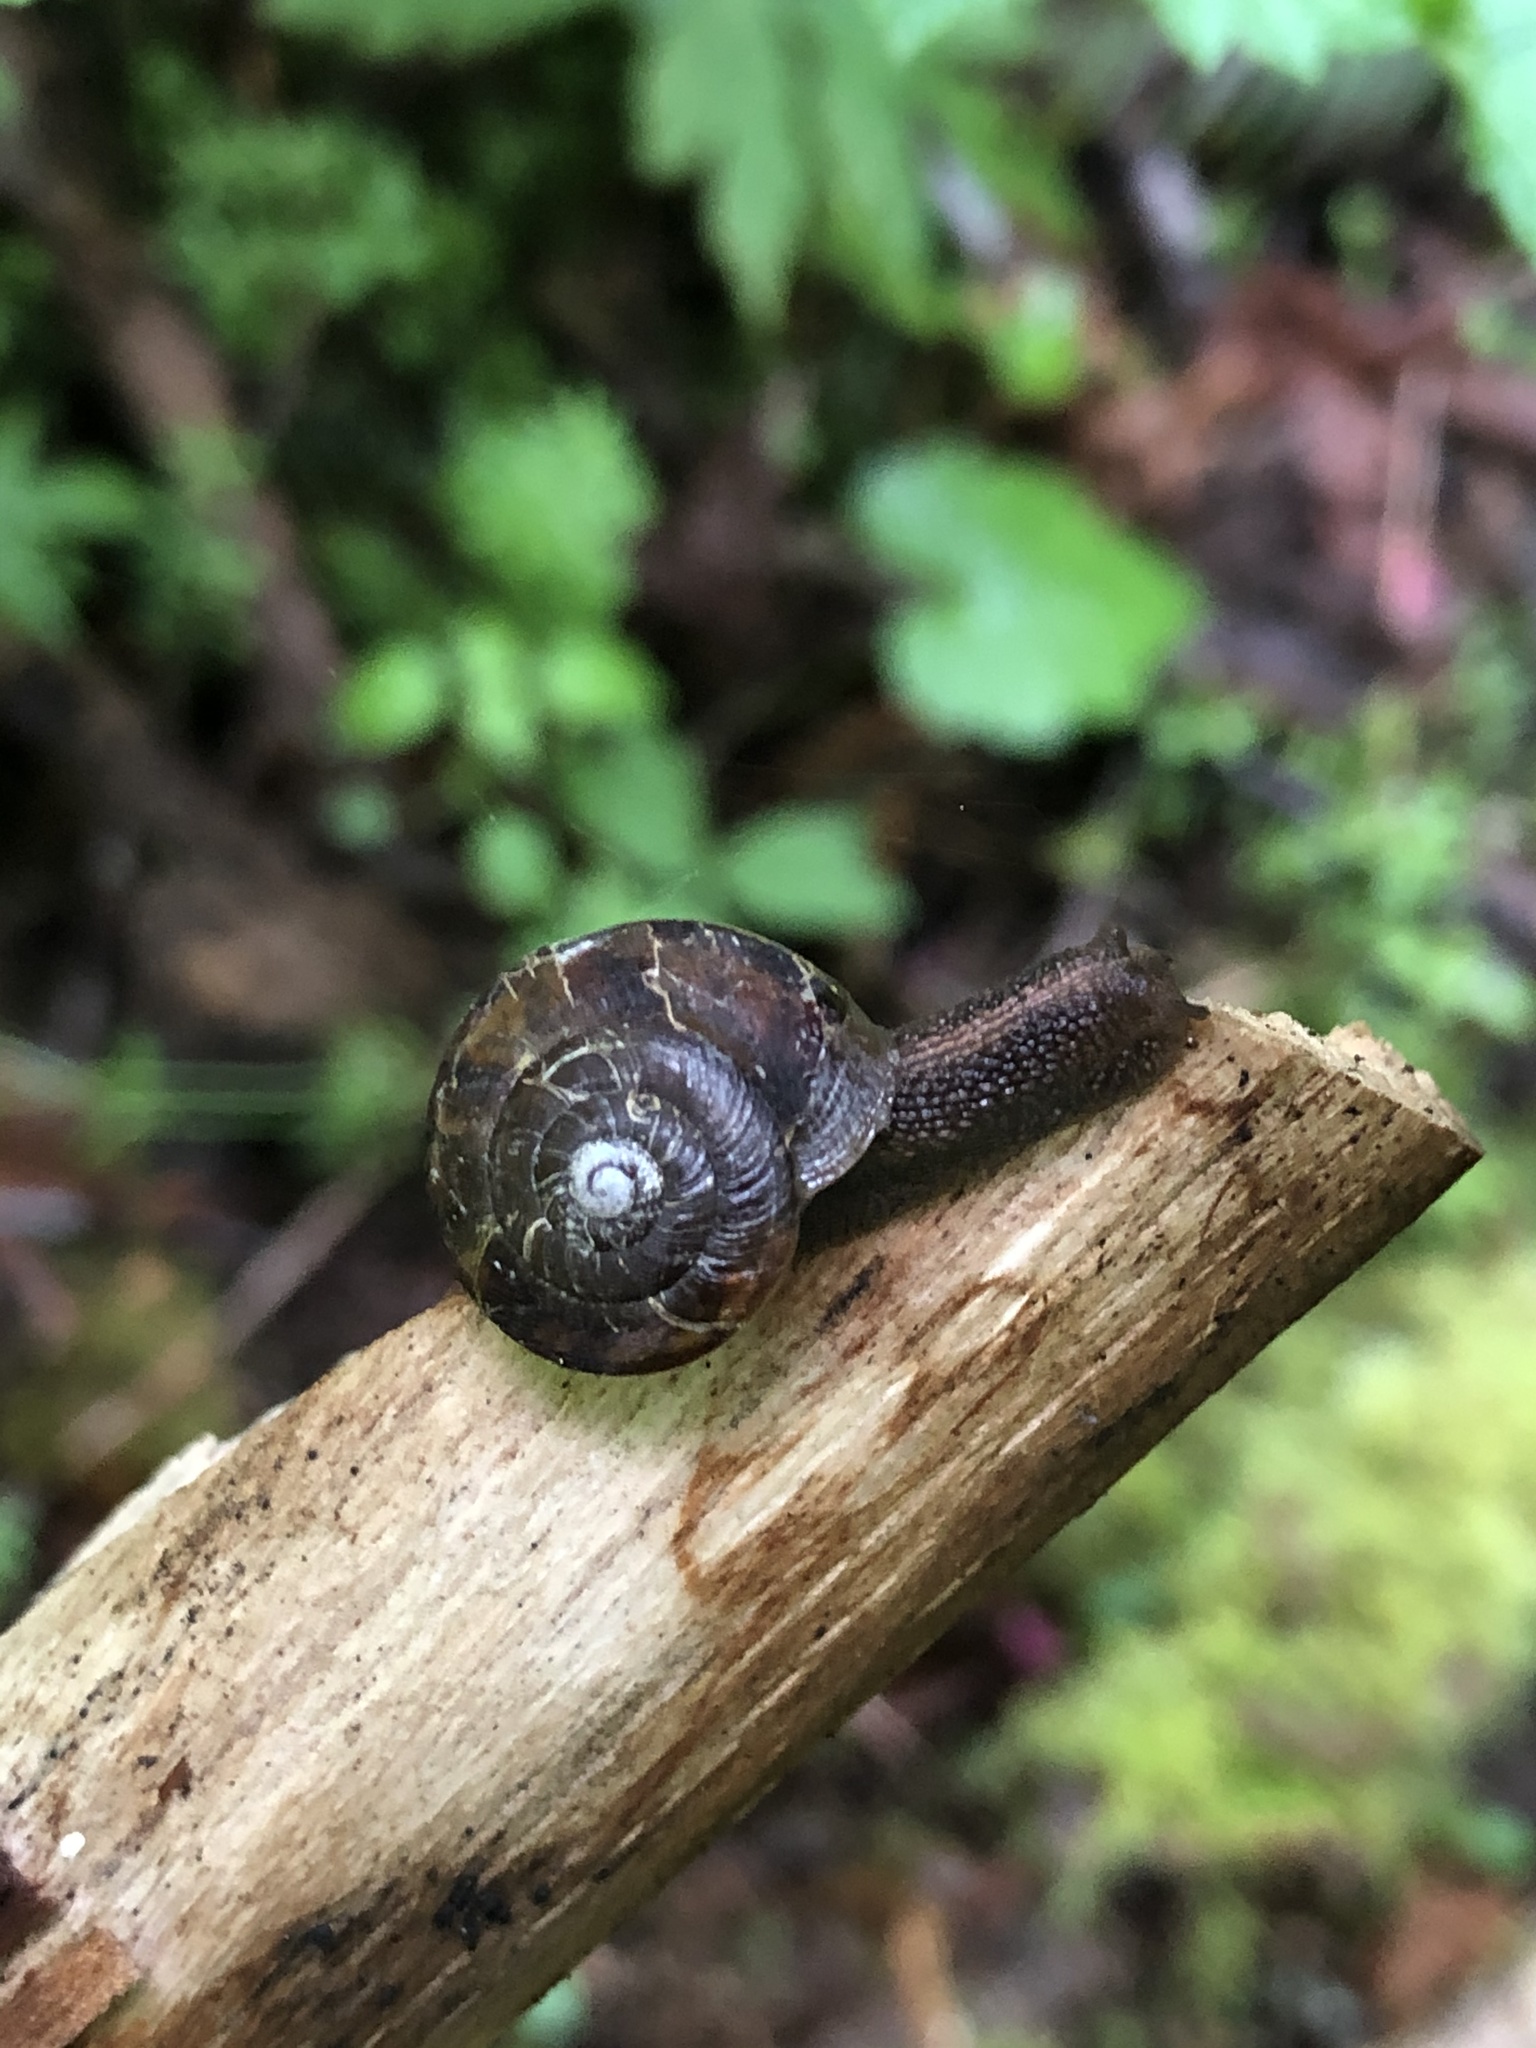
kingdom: Animalia
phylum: Mollusca
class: Gastropoda
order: Stylommatophora
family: Xanthonychidae
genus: Monadenia
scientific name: Monadenia fidelis
